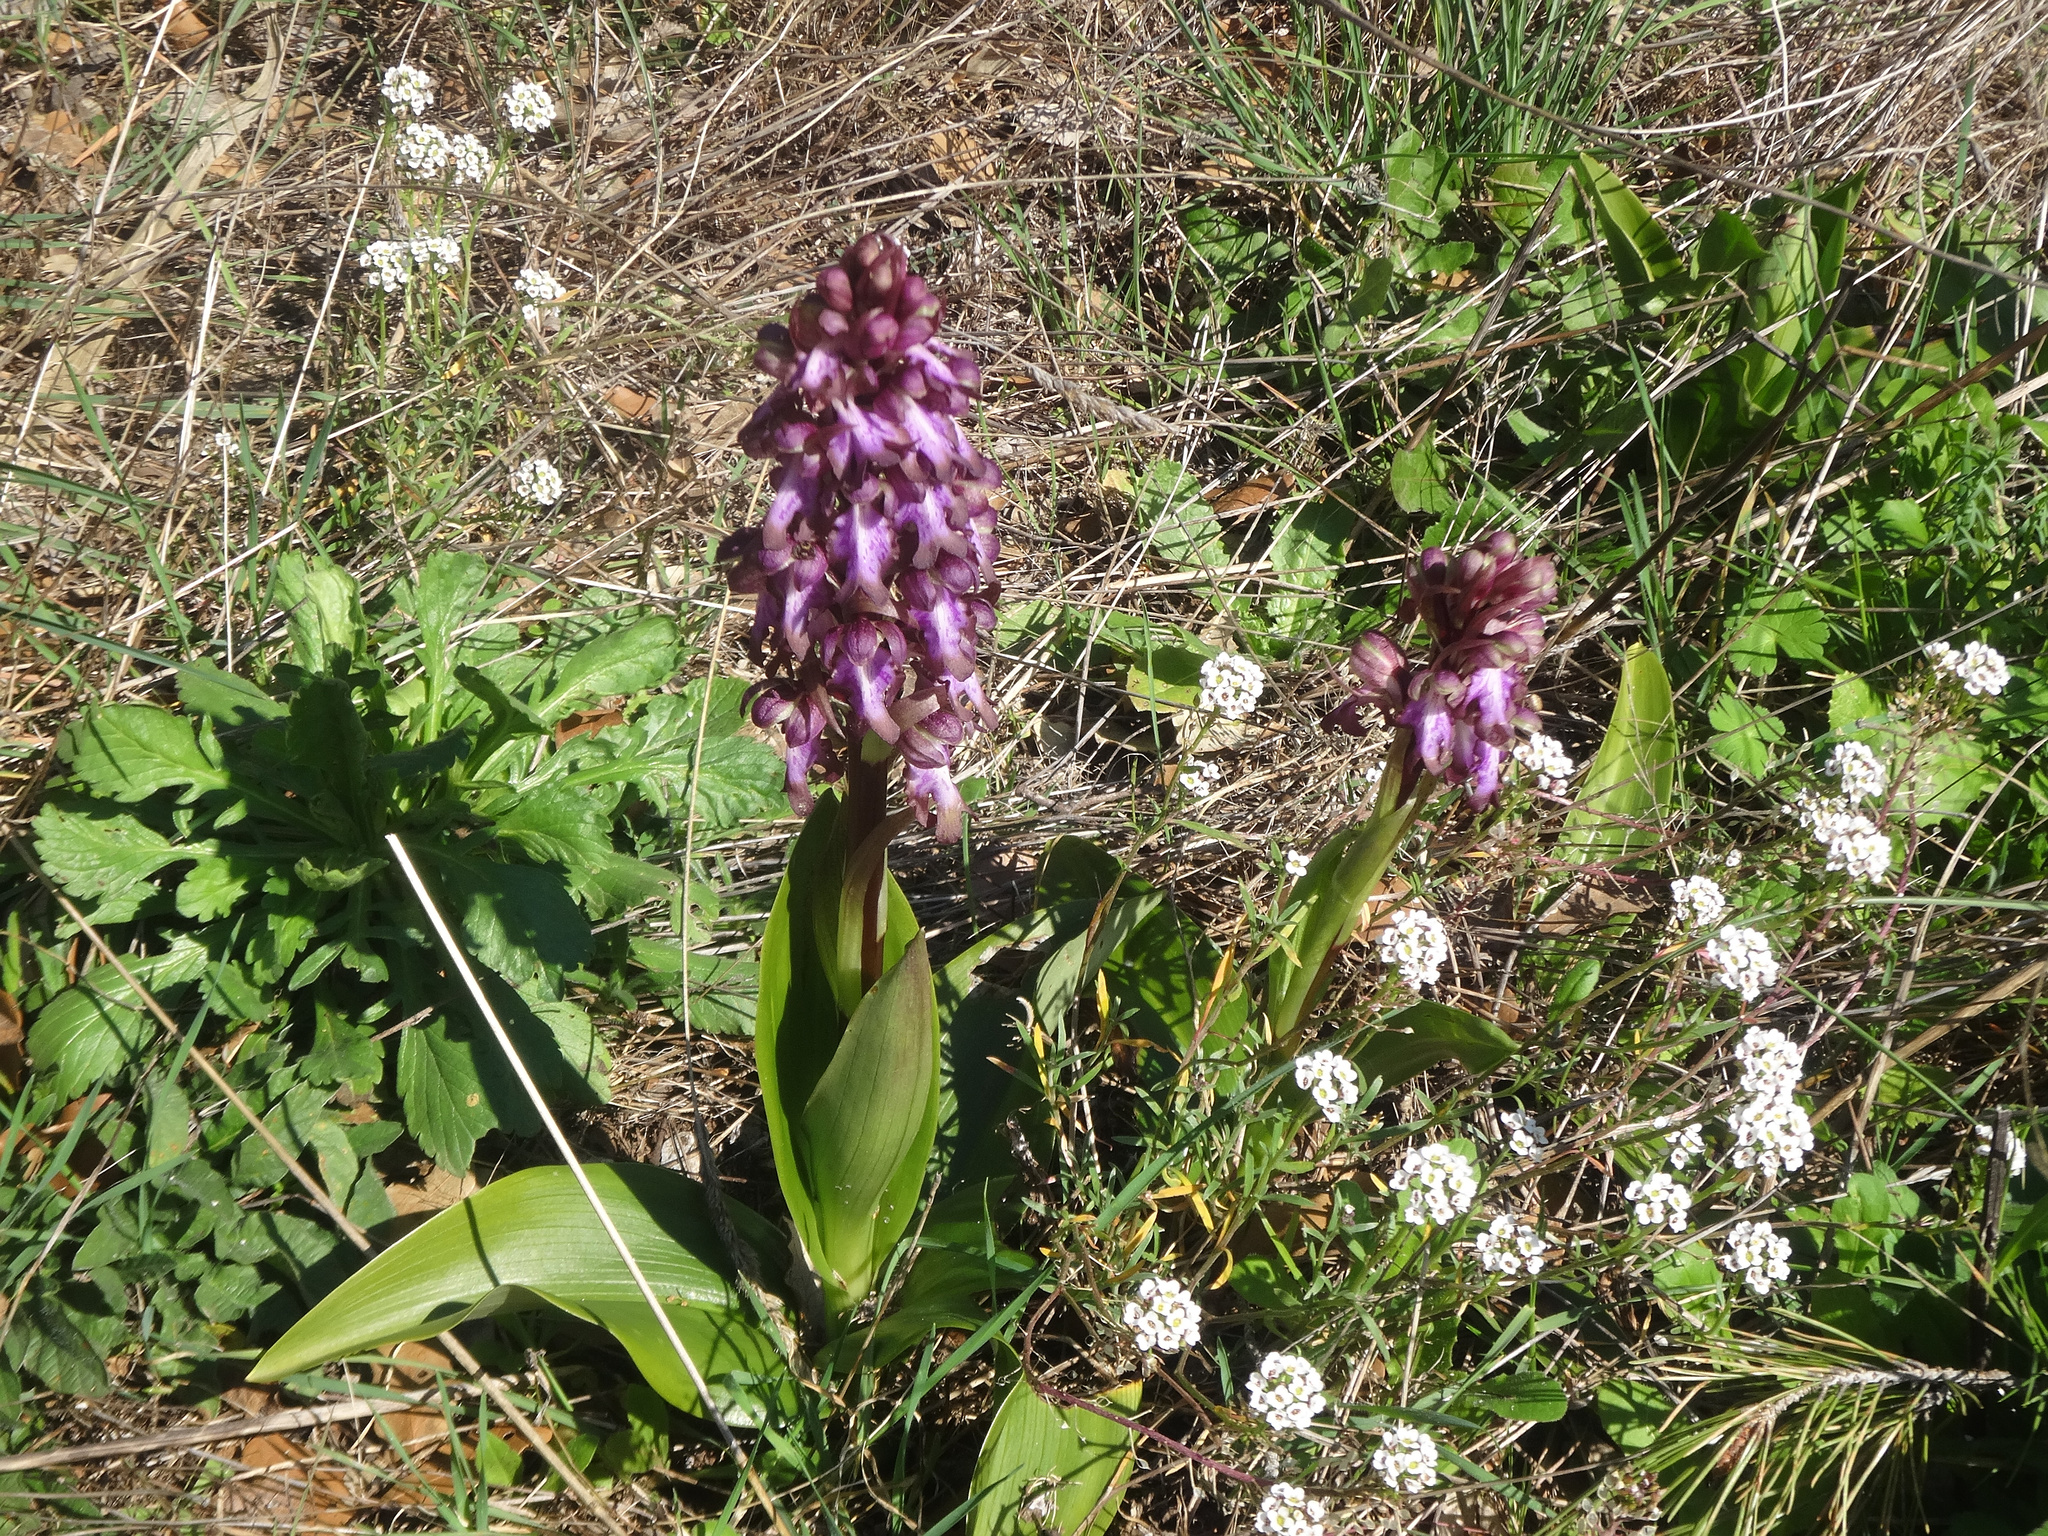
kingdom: Plantae
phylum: Tracheophyta
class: Liliopsida
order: Asparagales
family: Orchidaceae
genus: Himantoglossum
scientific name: Himantoglossum robertianum
